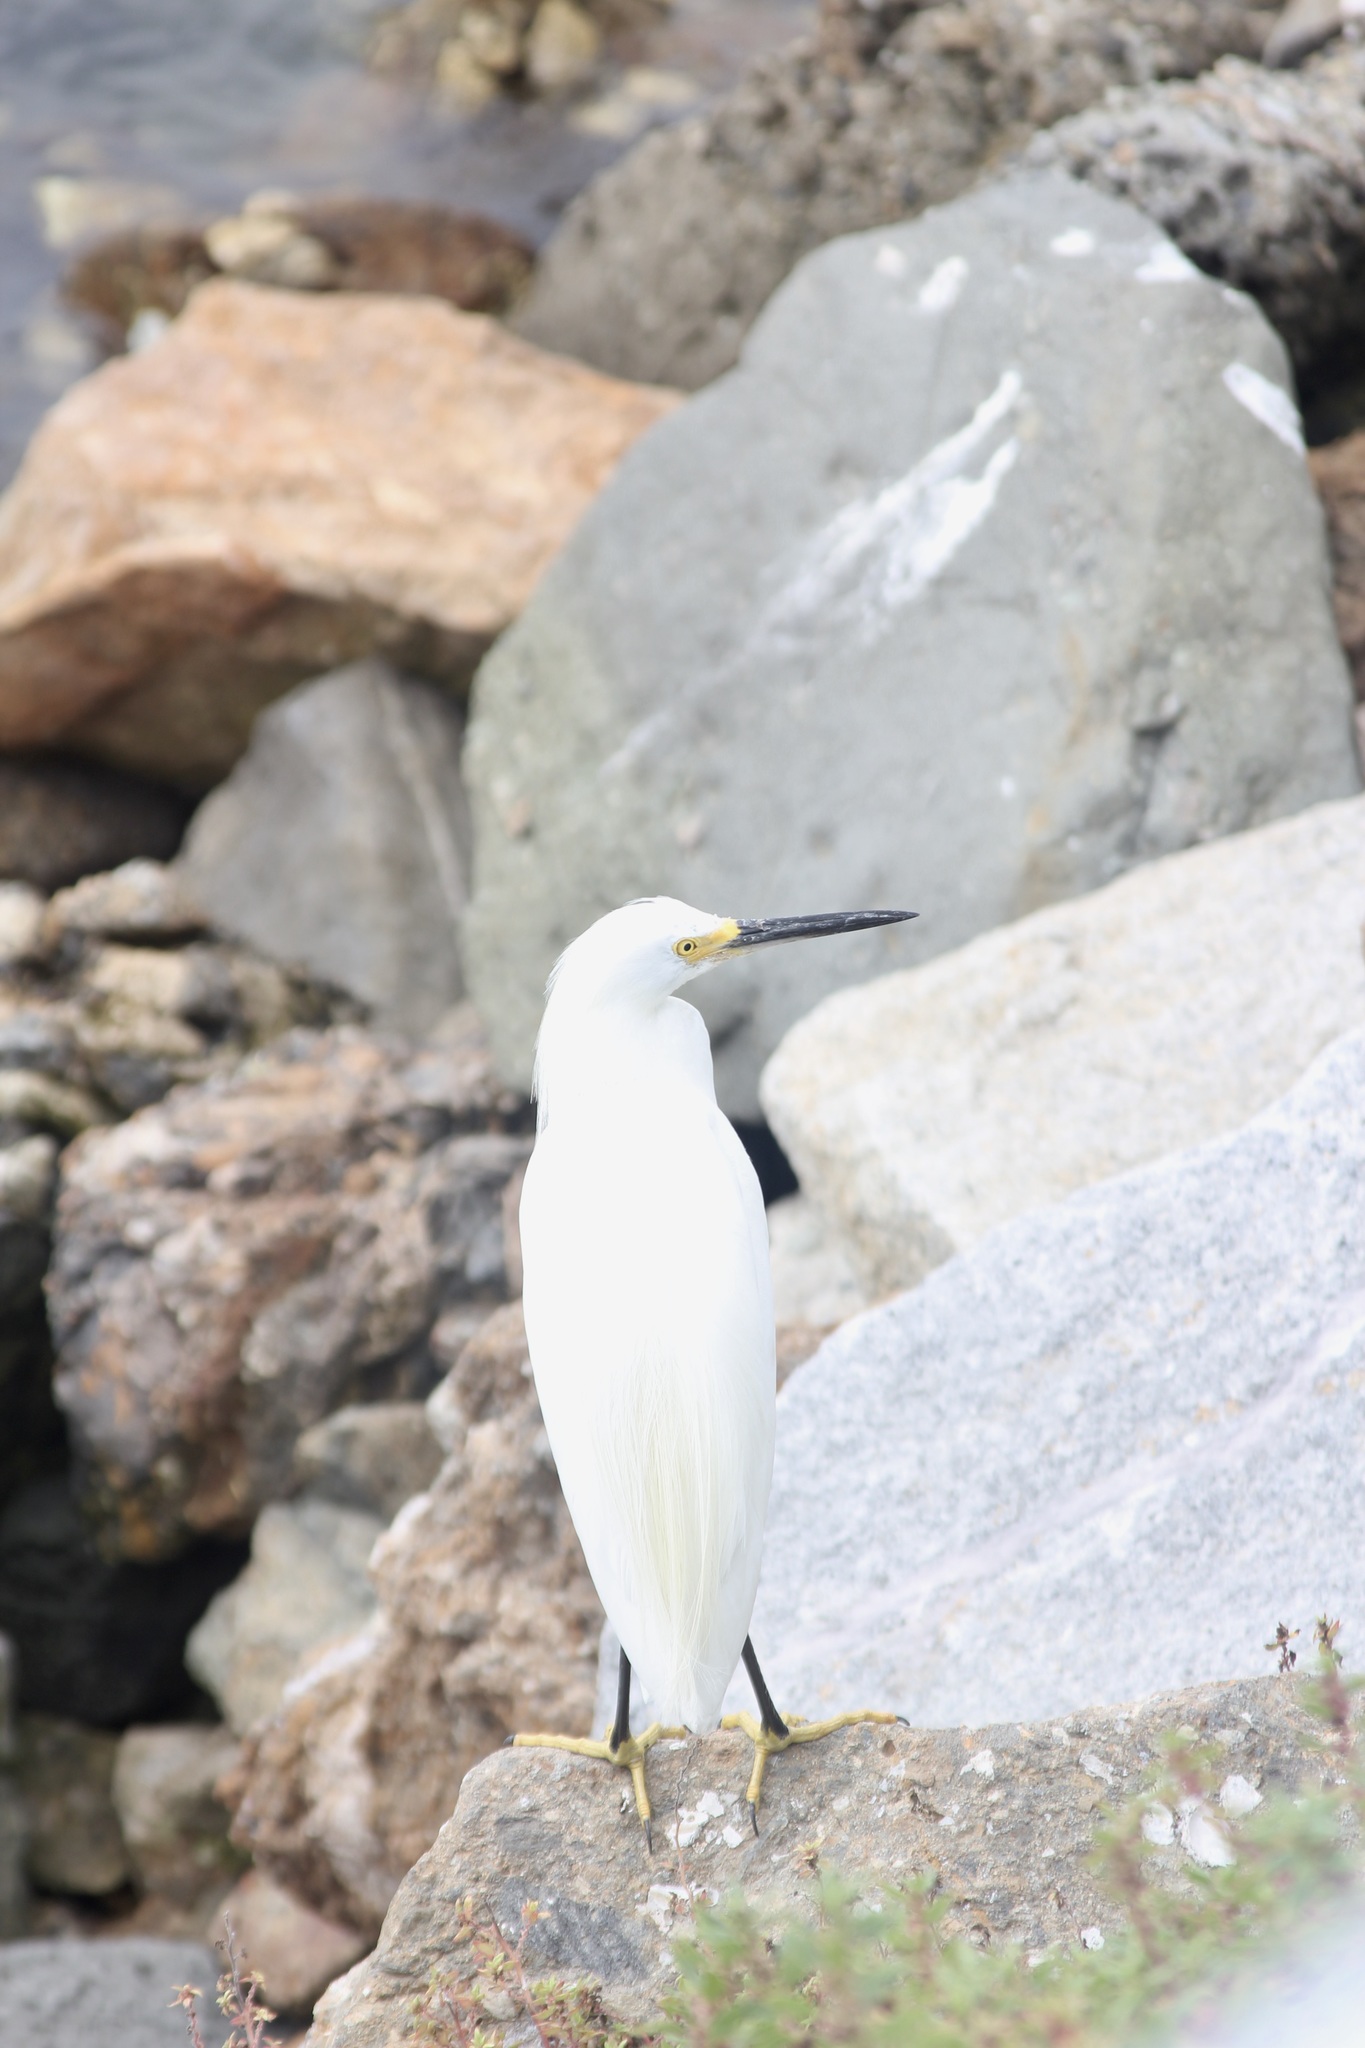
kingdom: Animalia
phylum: Chordata
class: Aves
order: Pelecaniformes
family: Ardeidae
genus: Egretta
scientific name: Egretta thula
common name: Snowy egret
